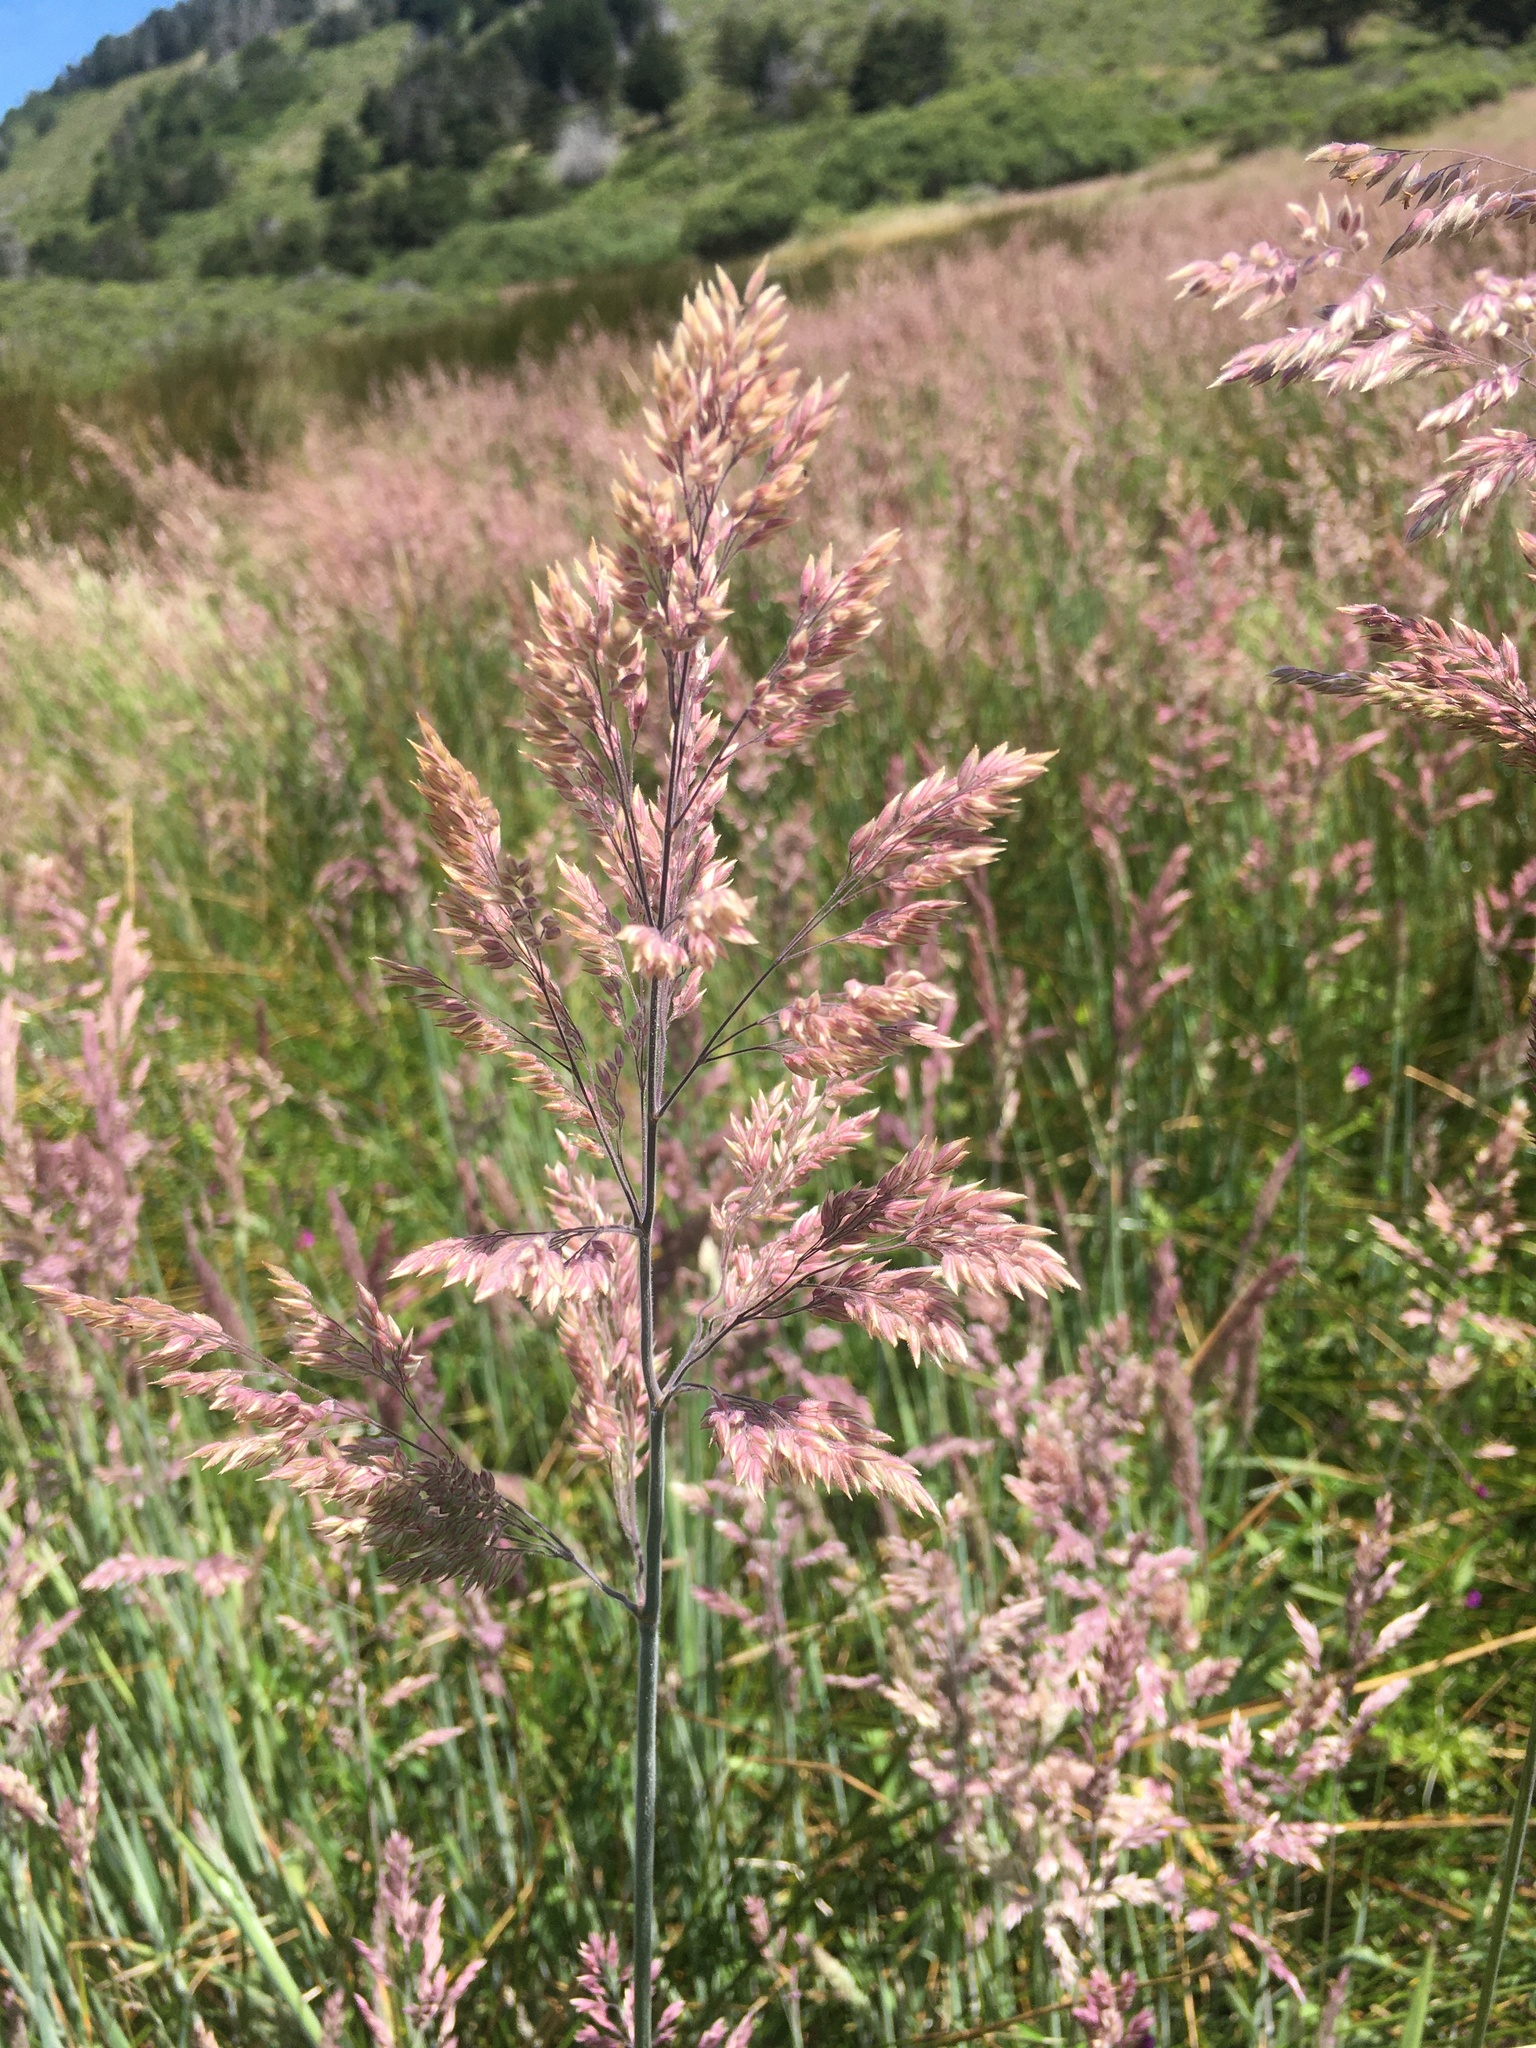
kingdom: Plantae
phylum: Tracheophyta
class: Liliopsida
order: Poales
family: Poaceae
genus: Holcus
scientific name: Holcus lanatus
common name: Yorkshire-fog
